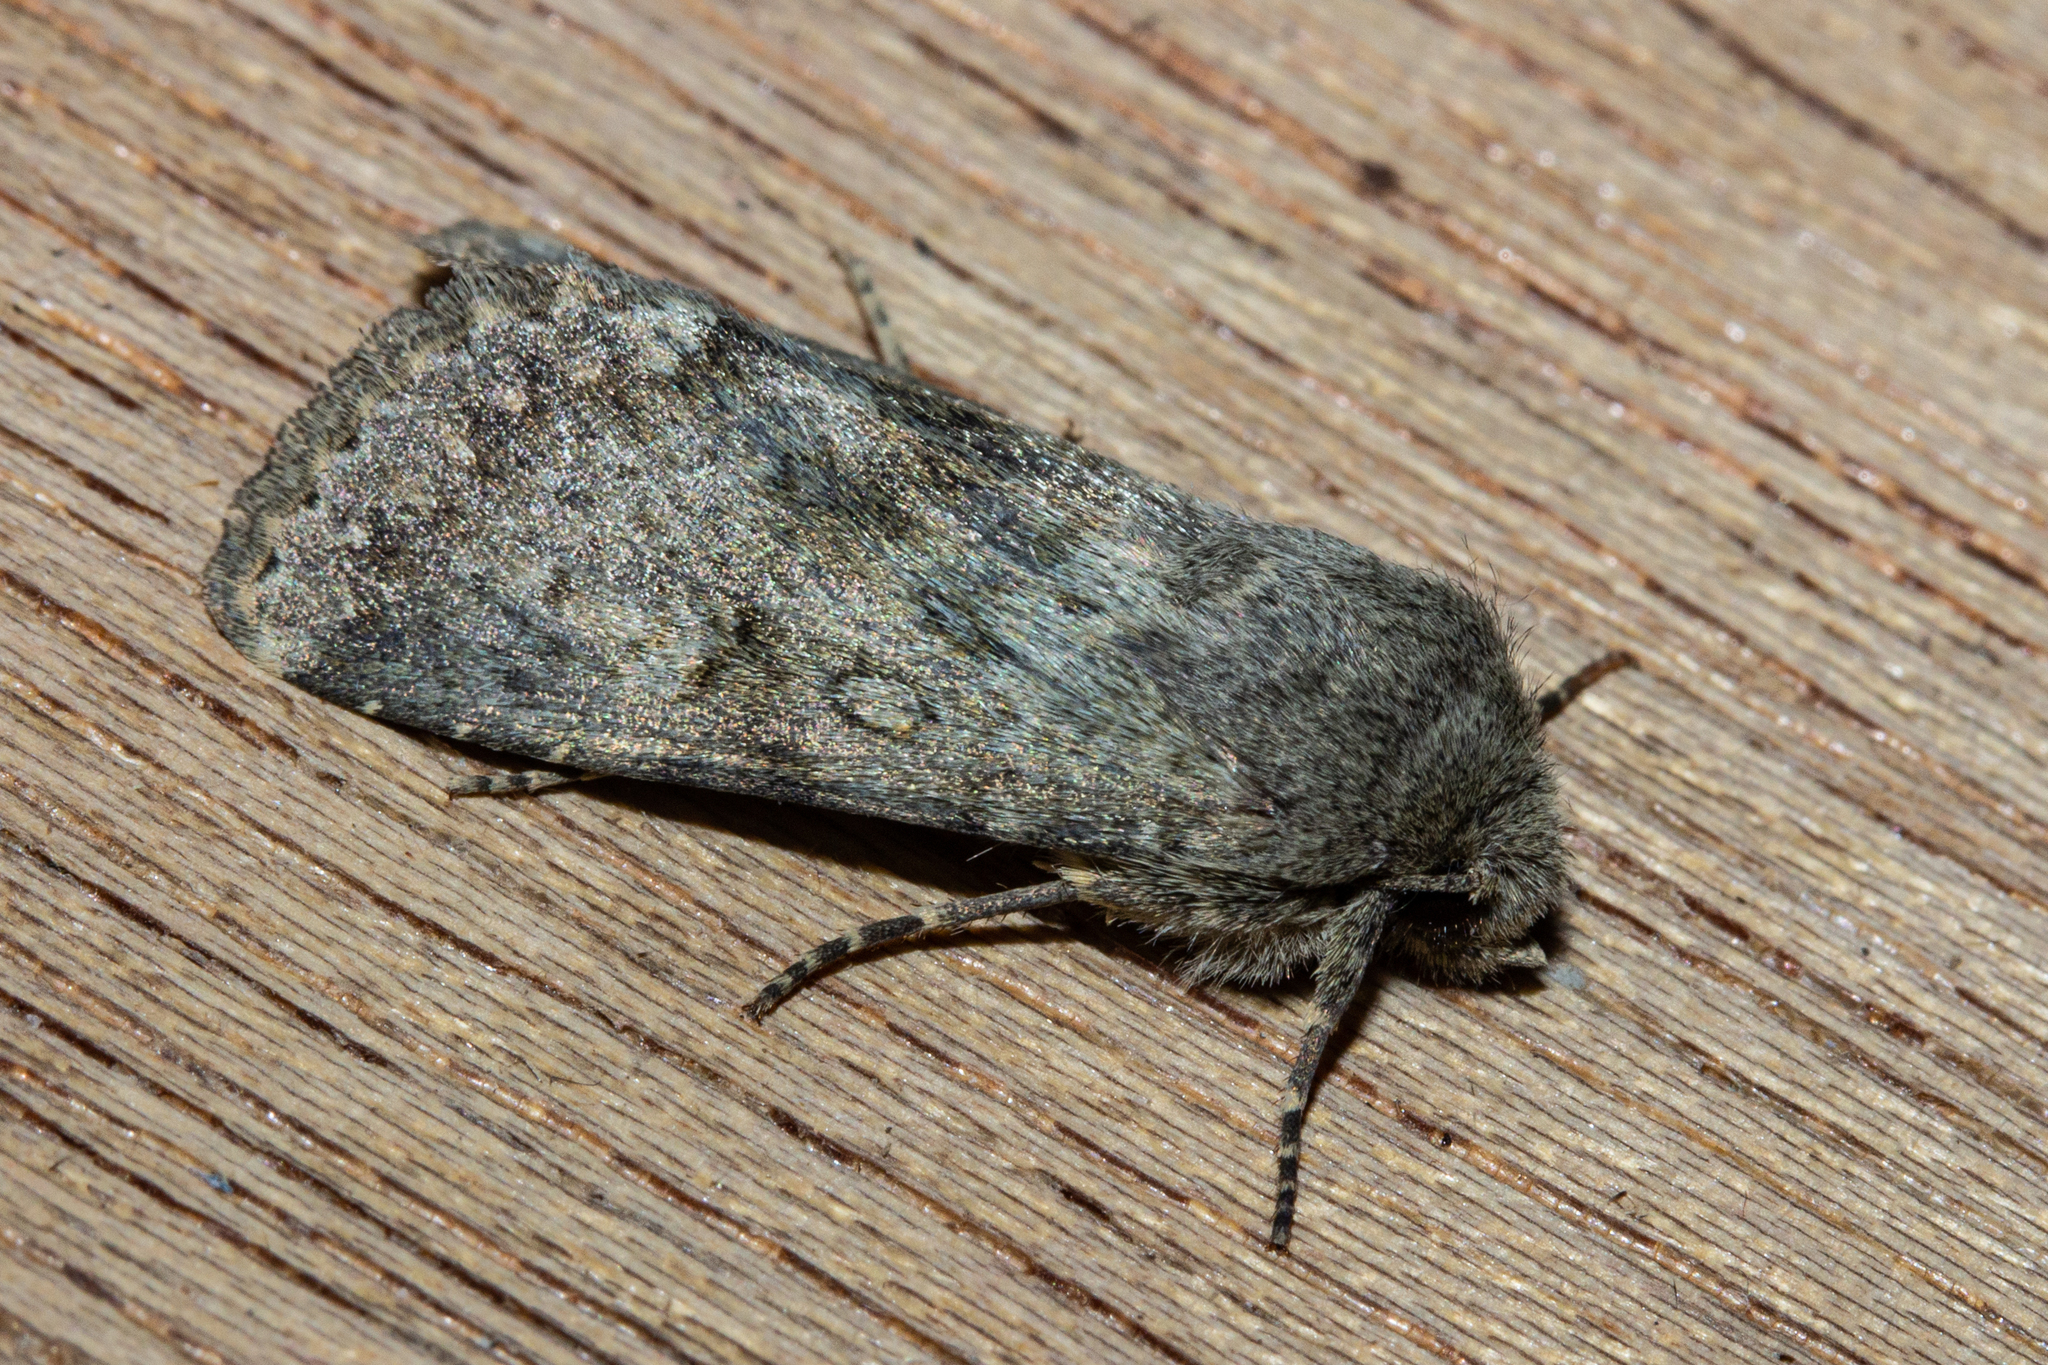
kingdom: Animalia
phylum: Arthropoda
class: Insecta
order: Lepidoptera
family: Noctuidae
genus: Ichneutica
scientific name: Ichneutica moderata
